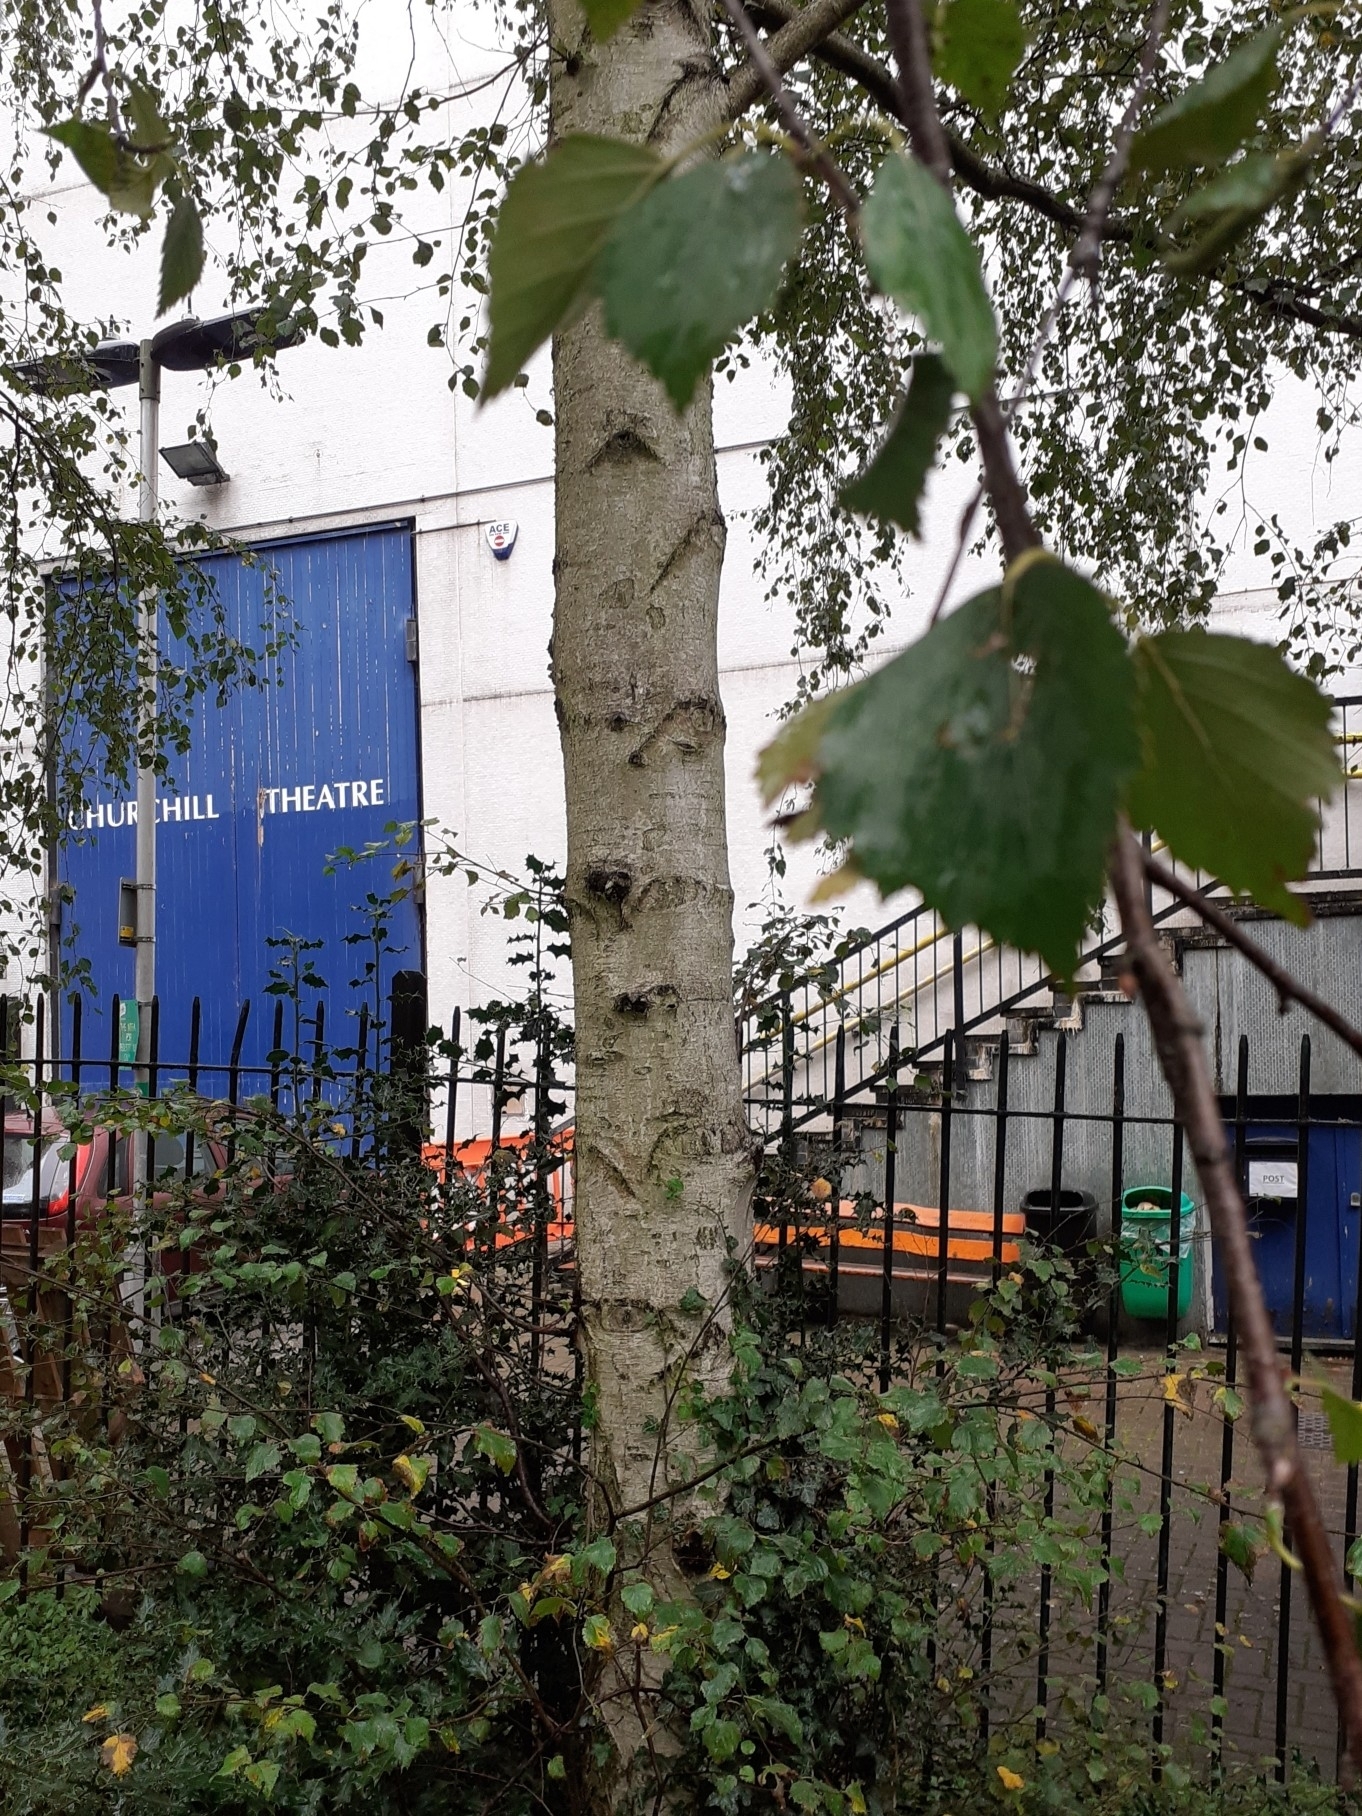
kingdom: Plantae
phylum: Tracheophyta
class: Magnoliopsida
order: Fagales
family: Betulaceae
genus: Betula
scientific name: Betula pendula
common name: Silver birch
